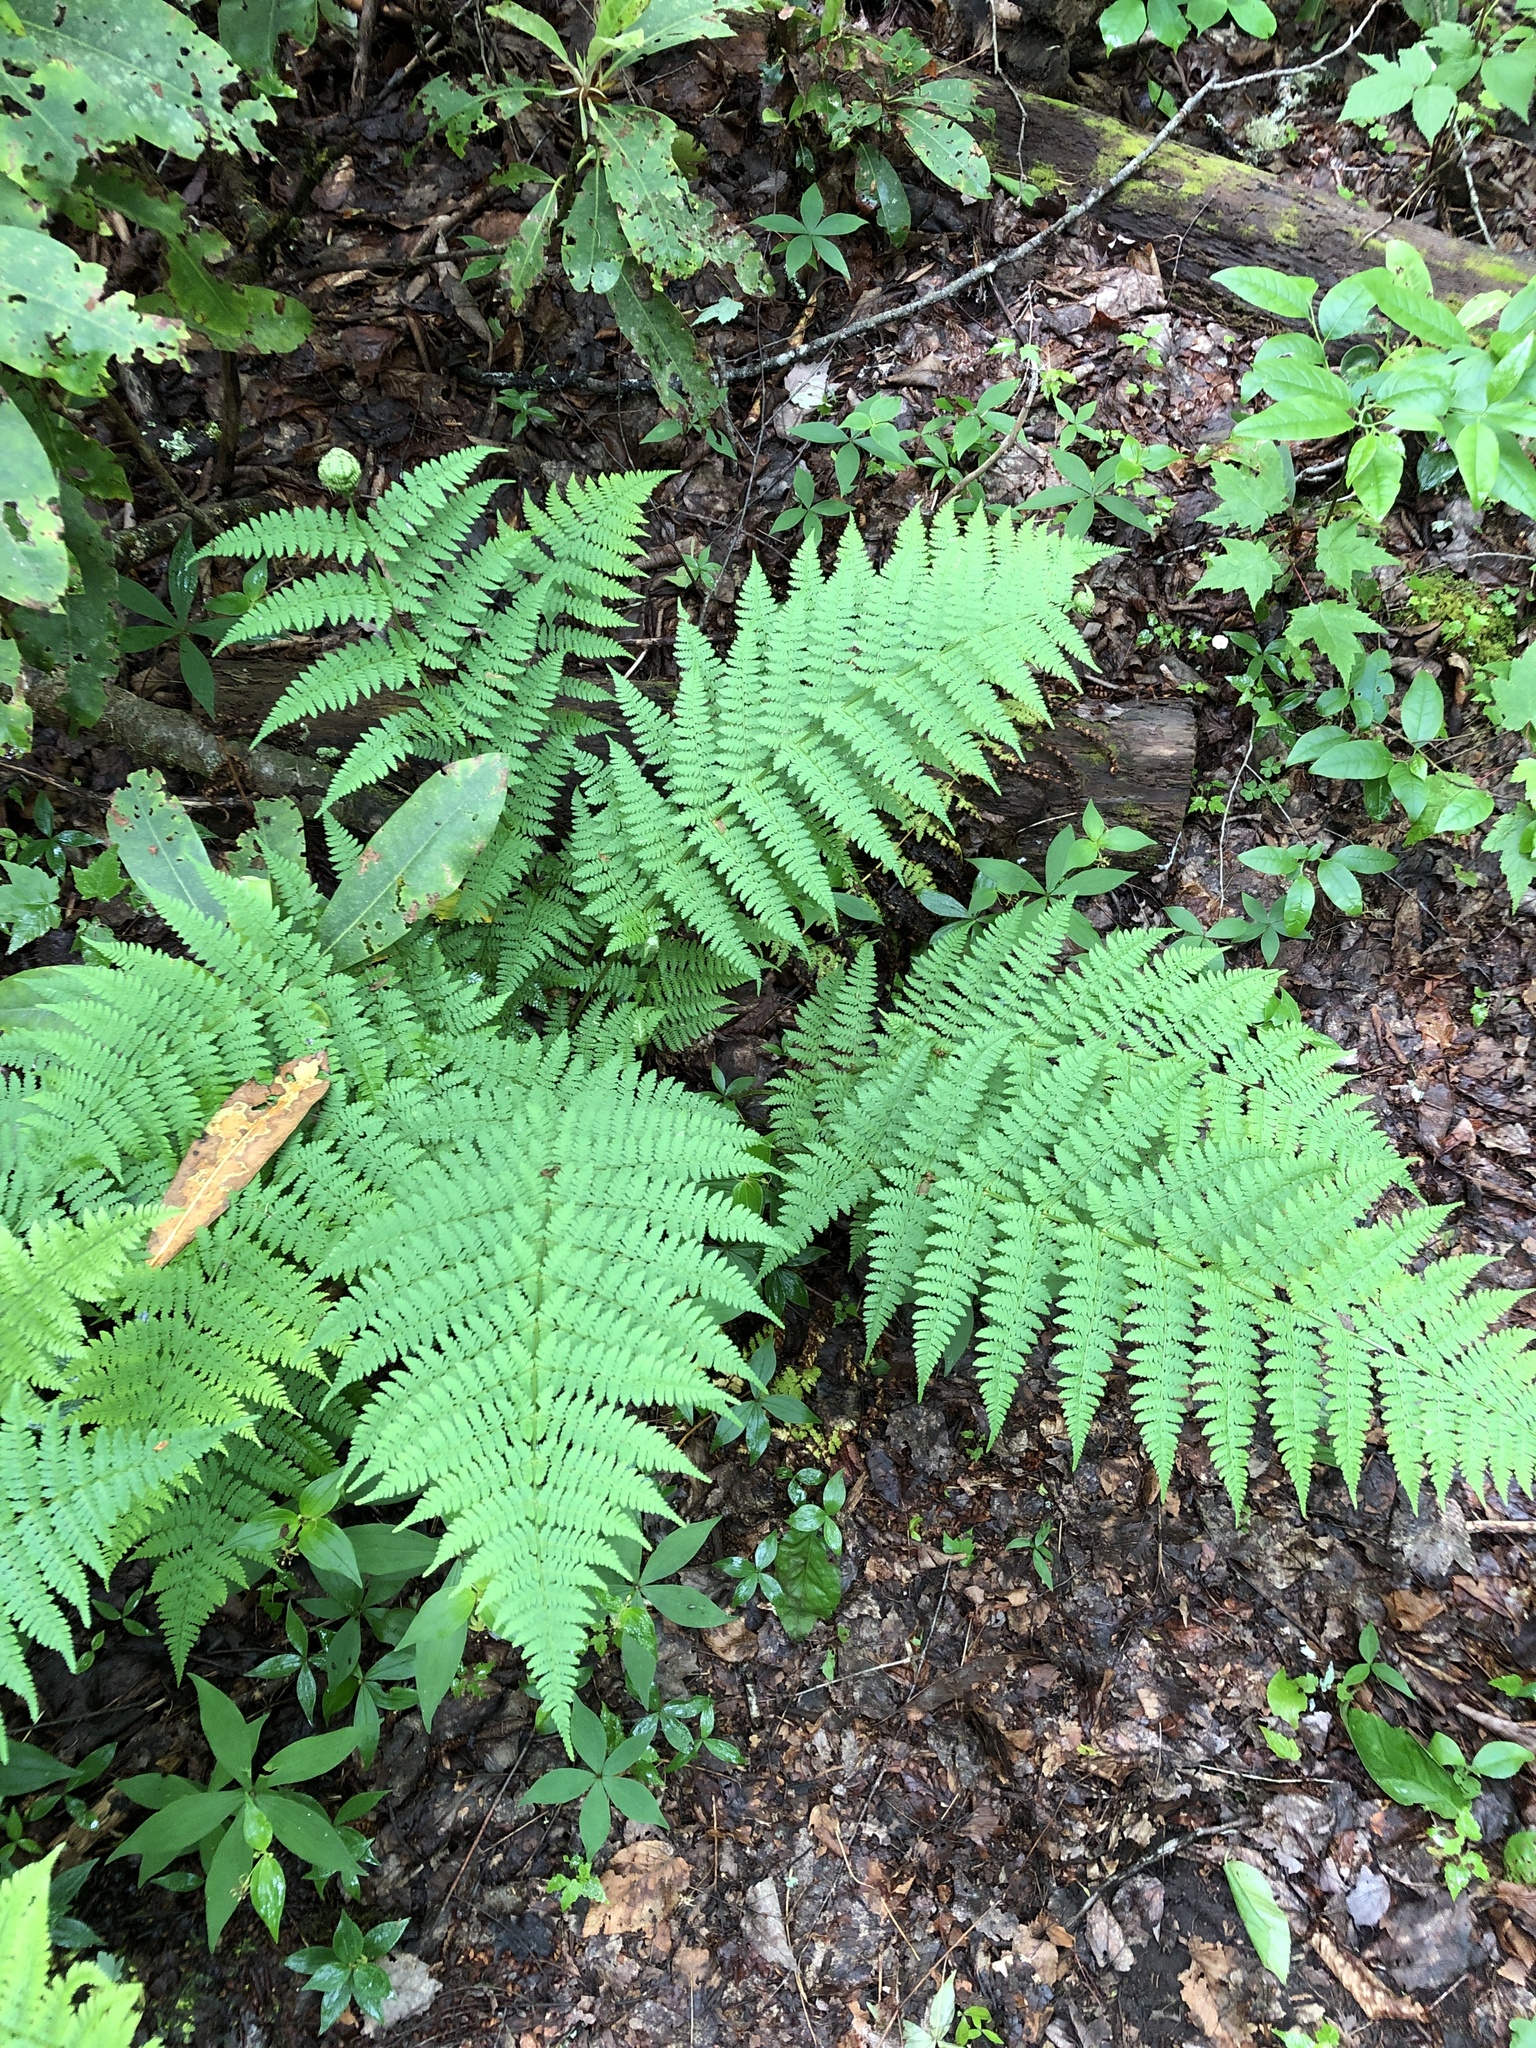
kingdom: Plantae
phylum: Tracheophyta
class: Polypodiopsida
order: Polypodiales
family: Dryopteridaceae
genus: Dryopteris
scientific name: Dryopteris intermedia
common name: Evergreen wood fern
